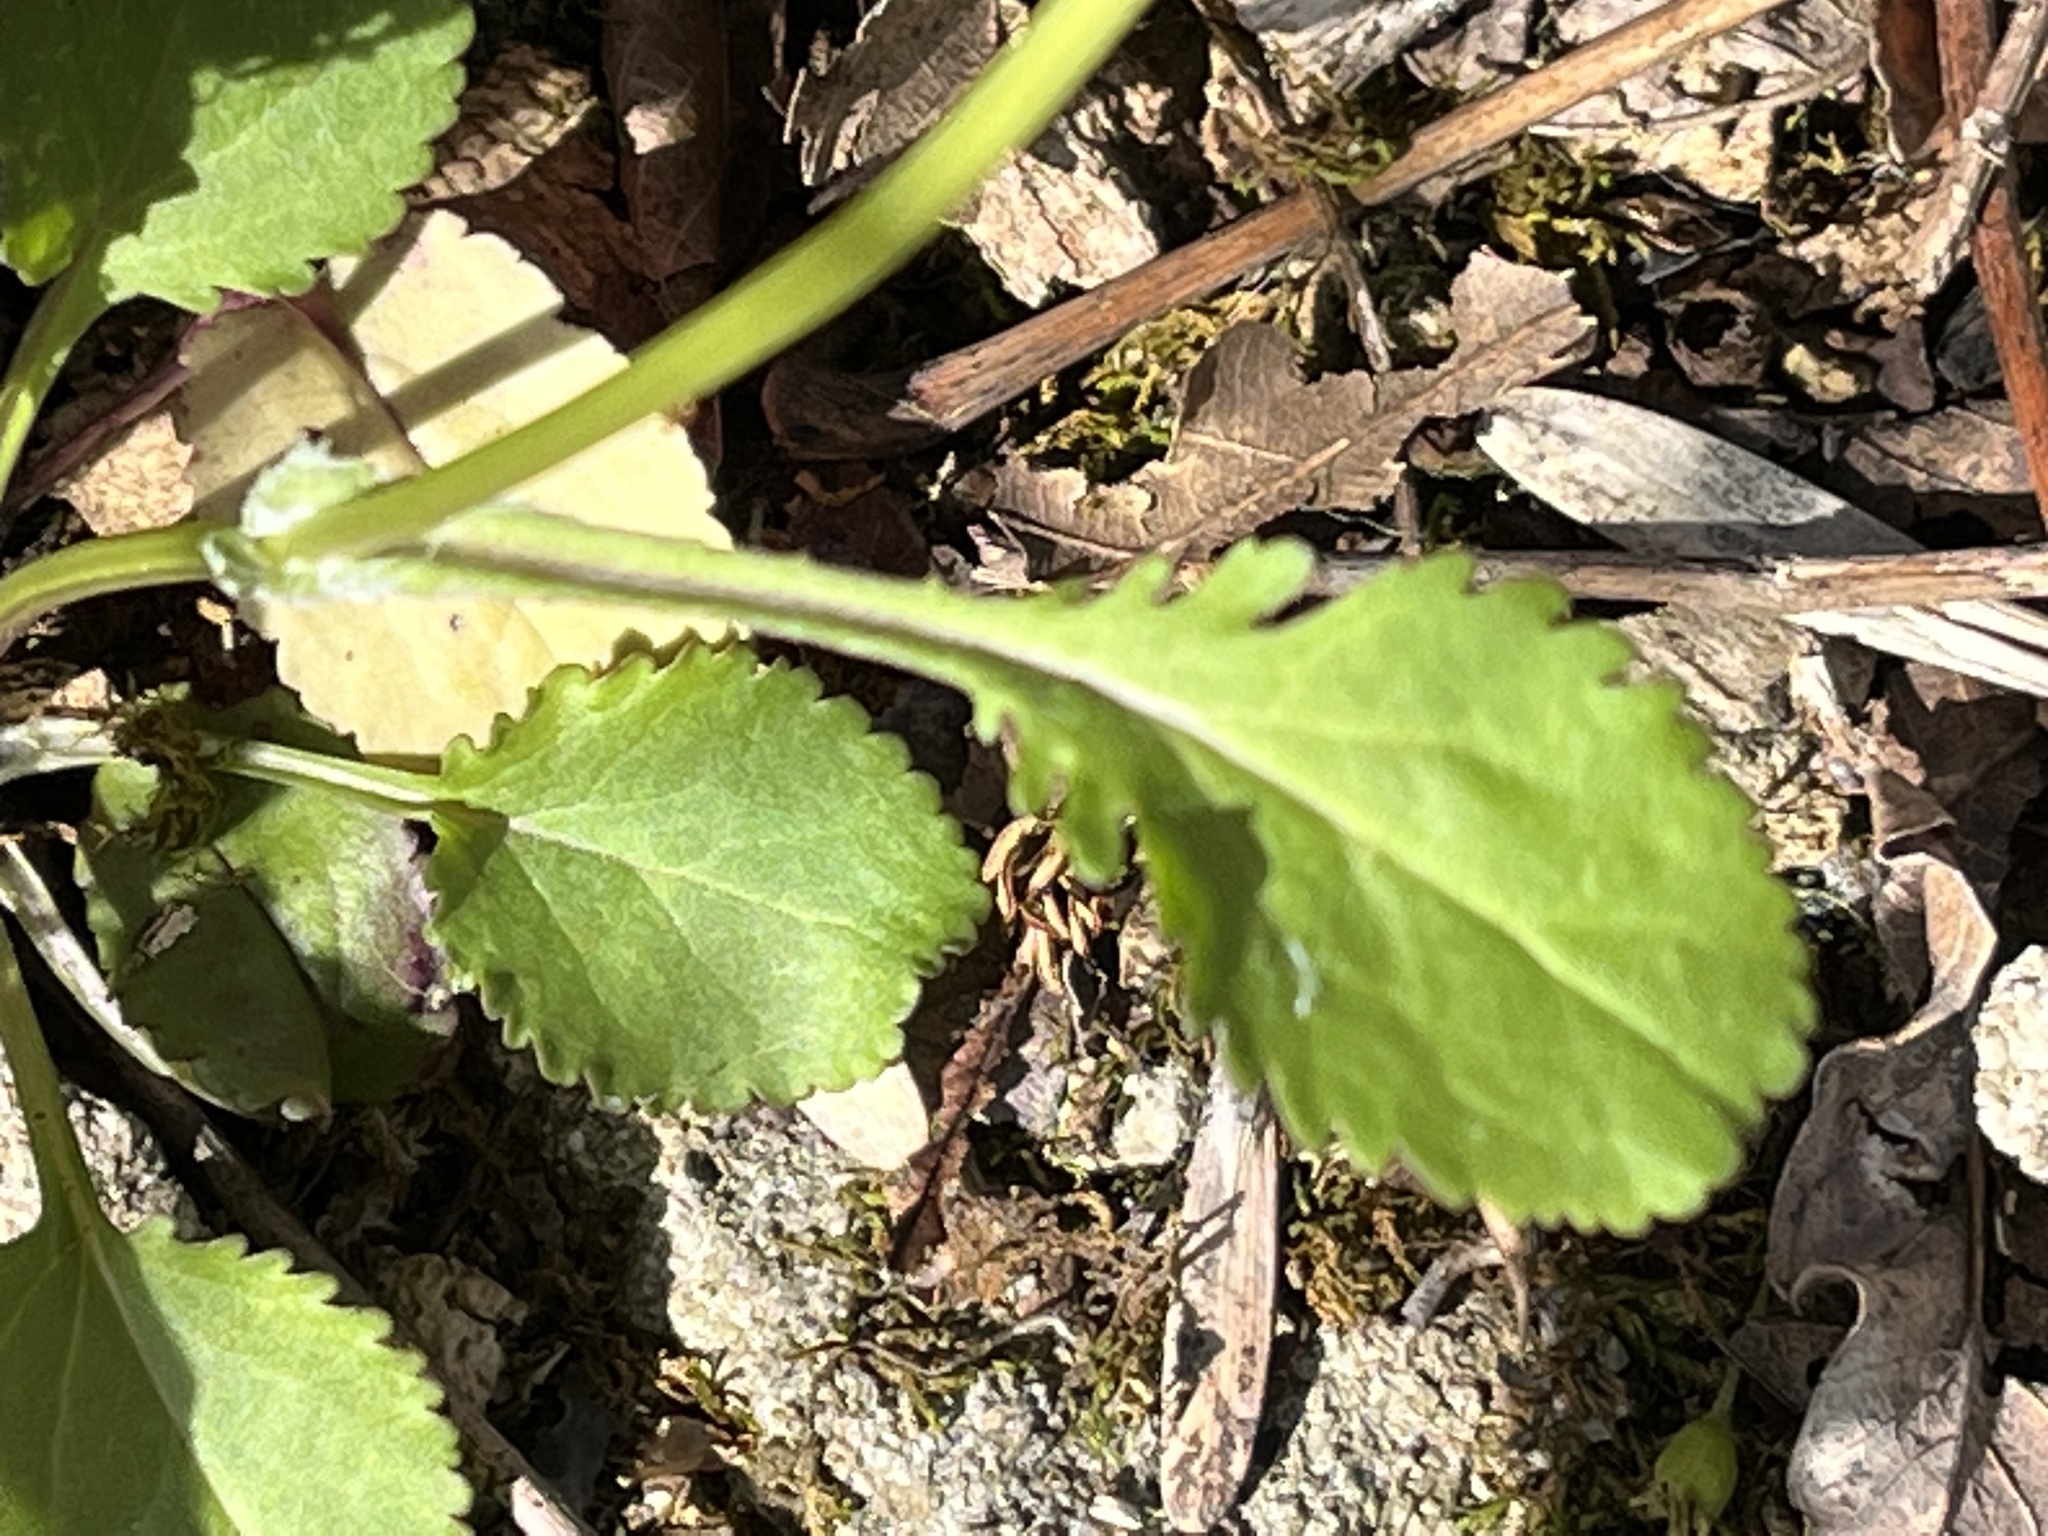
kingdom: Plantae
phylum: Tracheophyta
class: Magnoliopsida
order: Asterales
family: Asteraceae
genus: Packera
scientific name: Packera obovata
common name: Round-leaf ragwort
